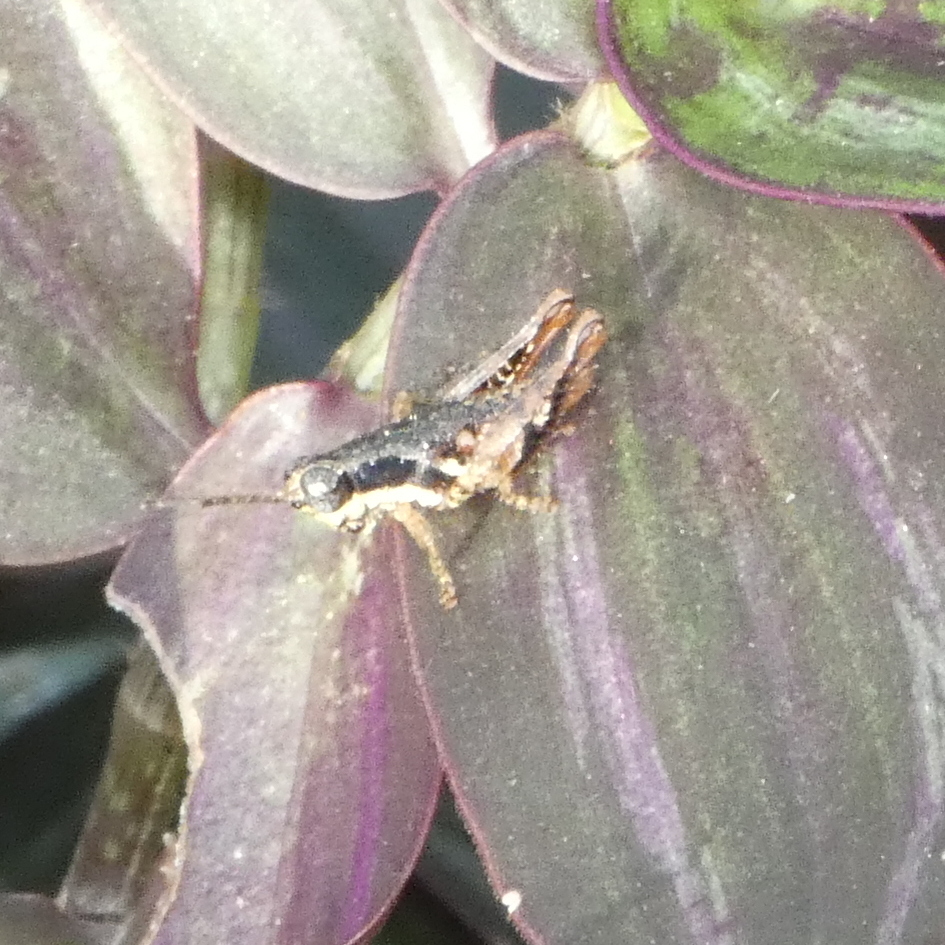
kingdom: Animalia
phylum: Arthropoda
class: Insecta
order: Orthoptera
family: Acrididae
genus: Eujivarus
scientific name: Eujivarus meridionalis
